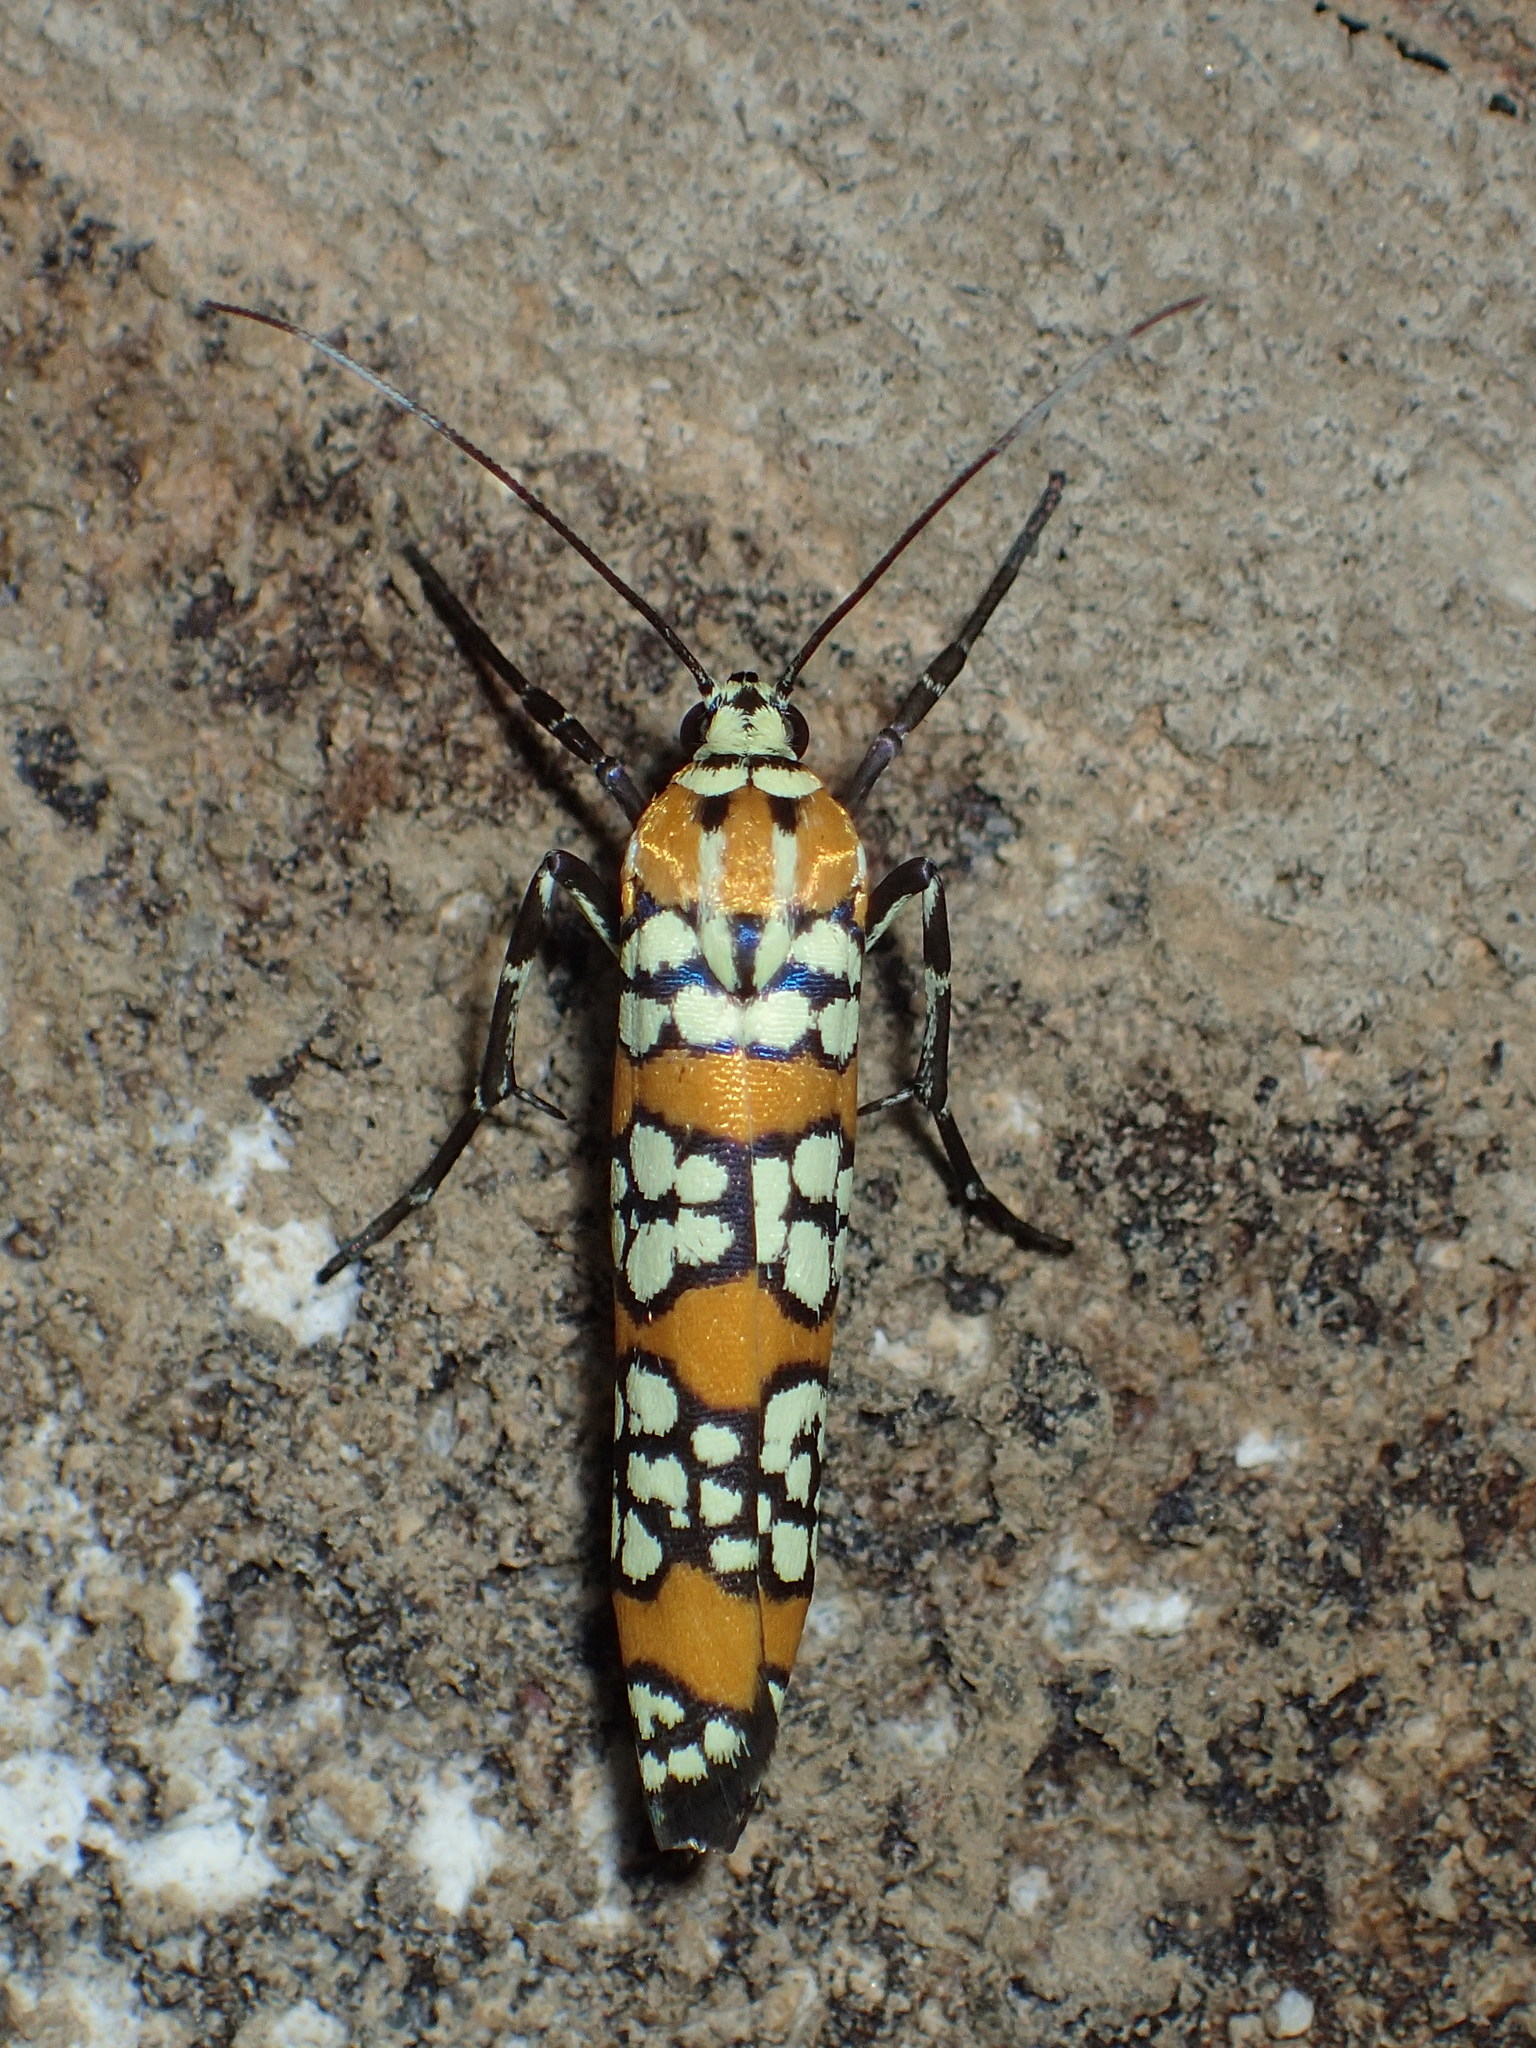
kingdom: Animalia
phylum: Arthropoda
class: Insecta
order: Lepidoptera
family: Attevidae
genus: Atteva
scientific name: Atteva punctella
